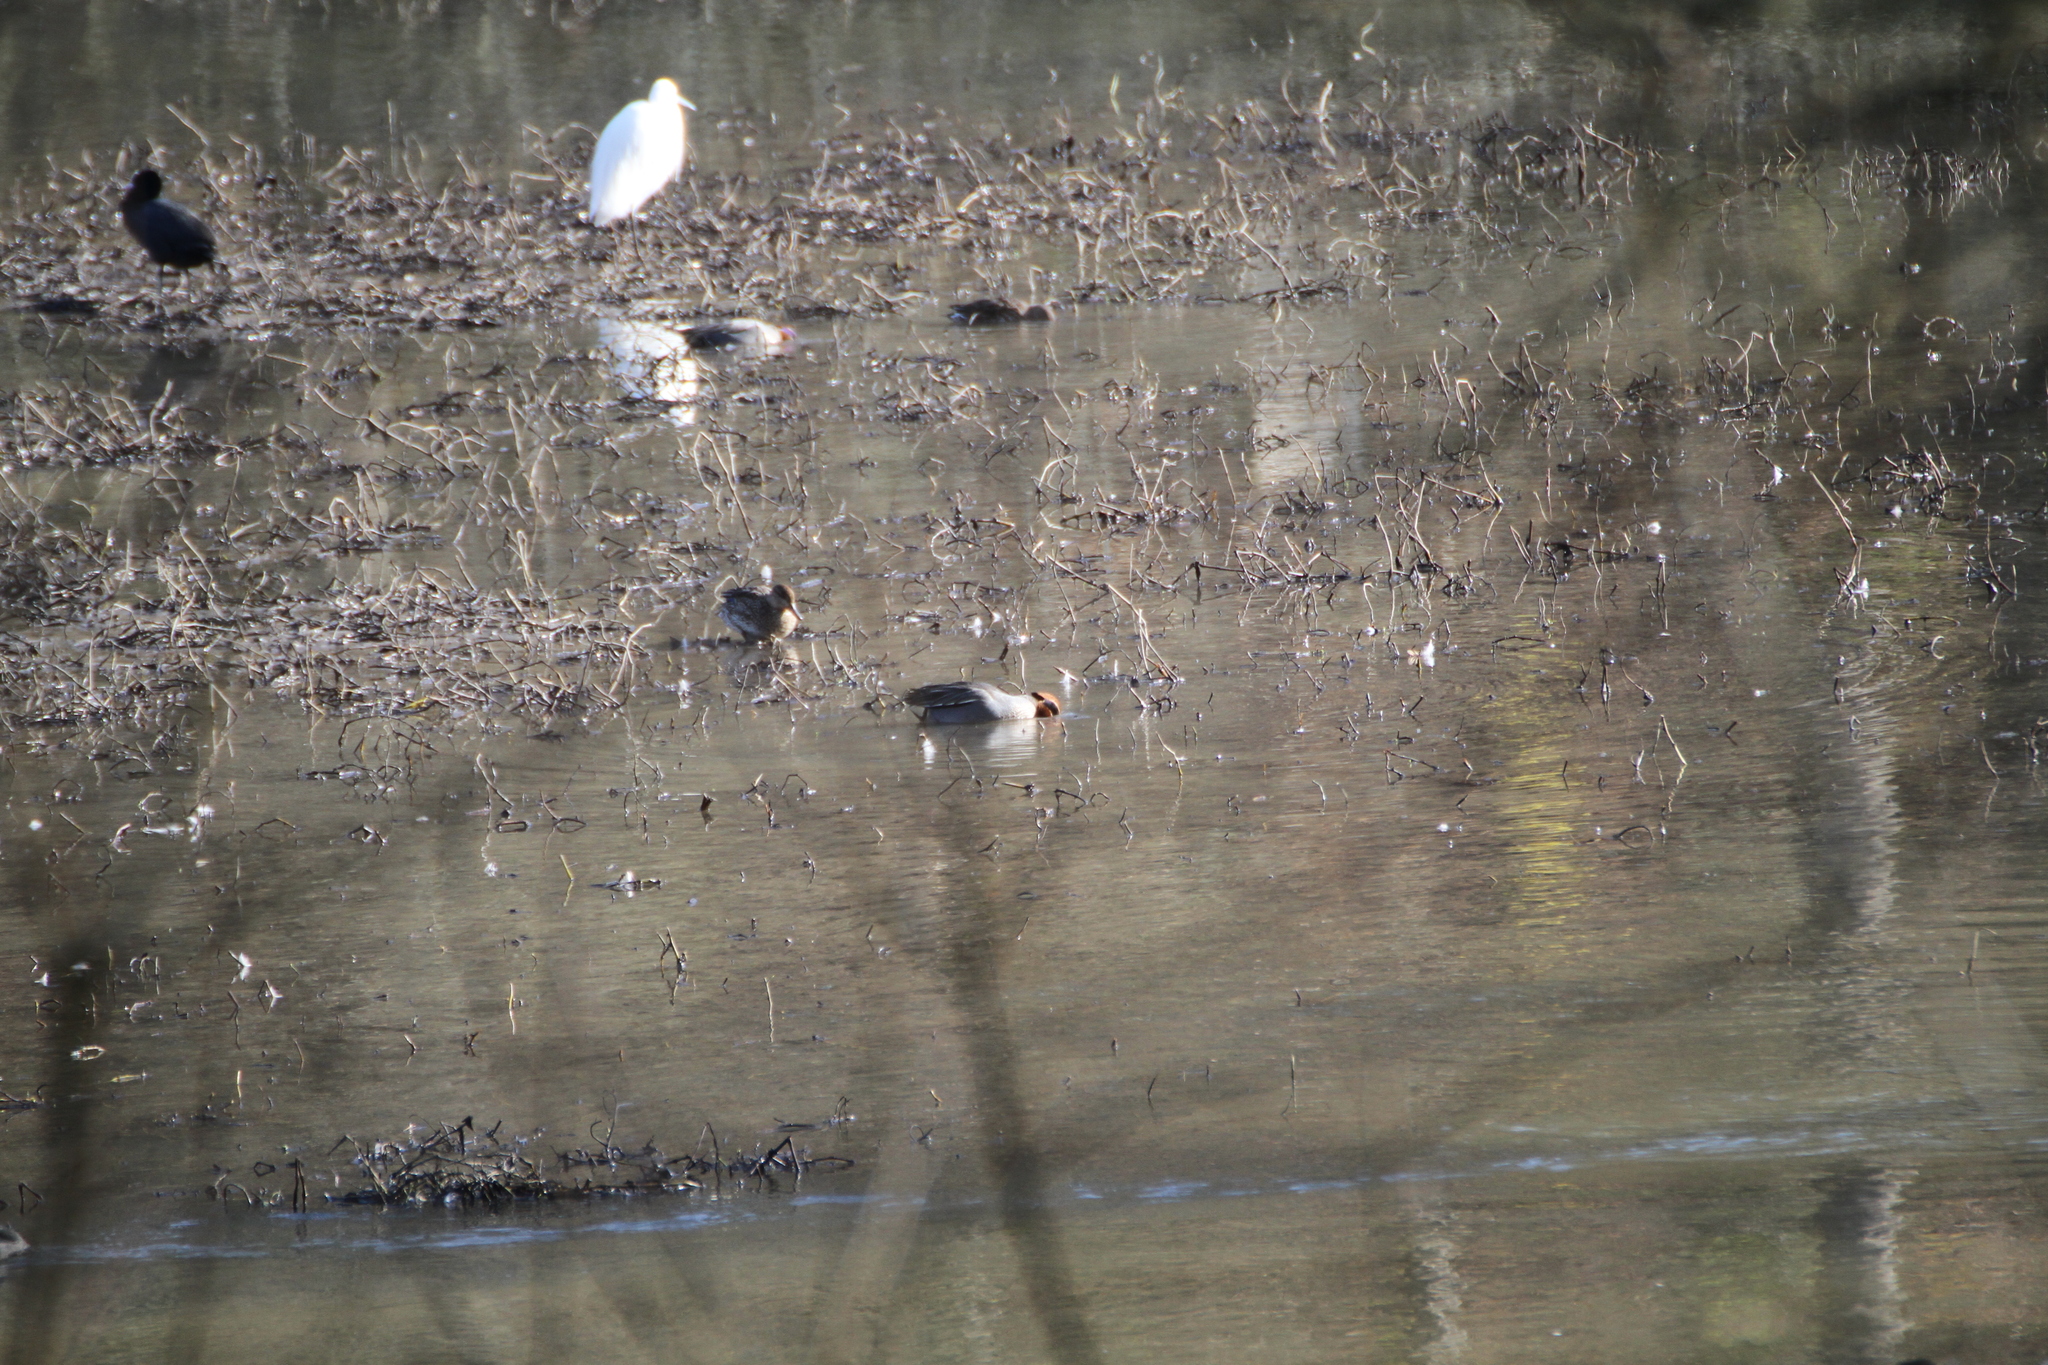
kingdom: Animalia
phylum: Chordata
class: Aves
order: Anseriformes
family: Anatidae
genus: Anas
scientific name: Anas crecca
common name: Eurasian teal
